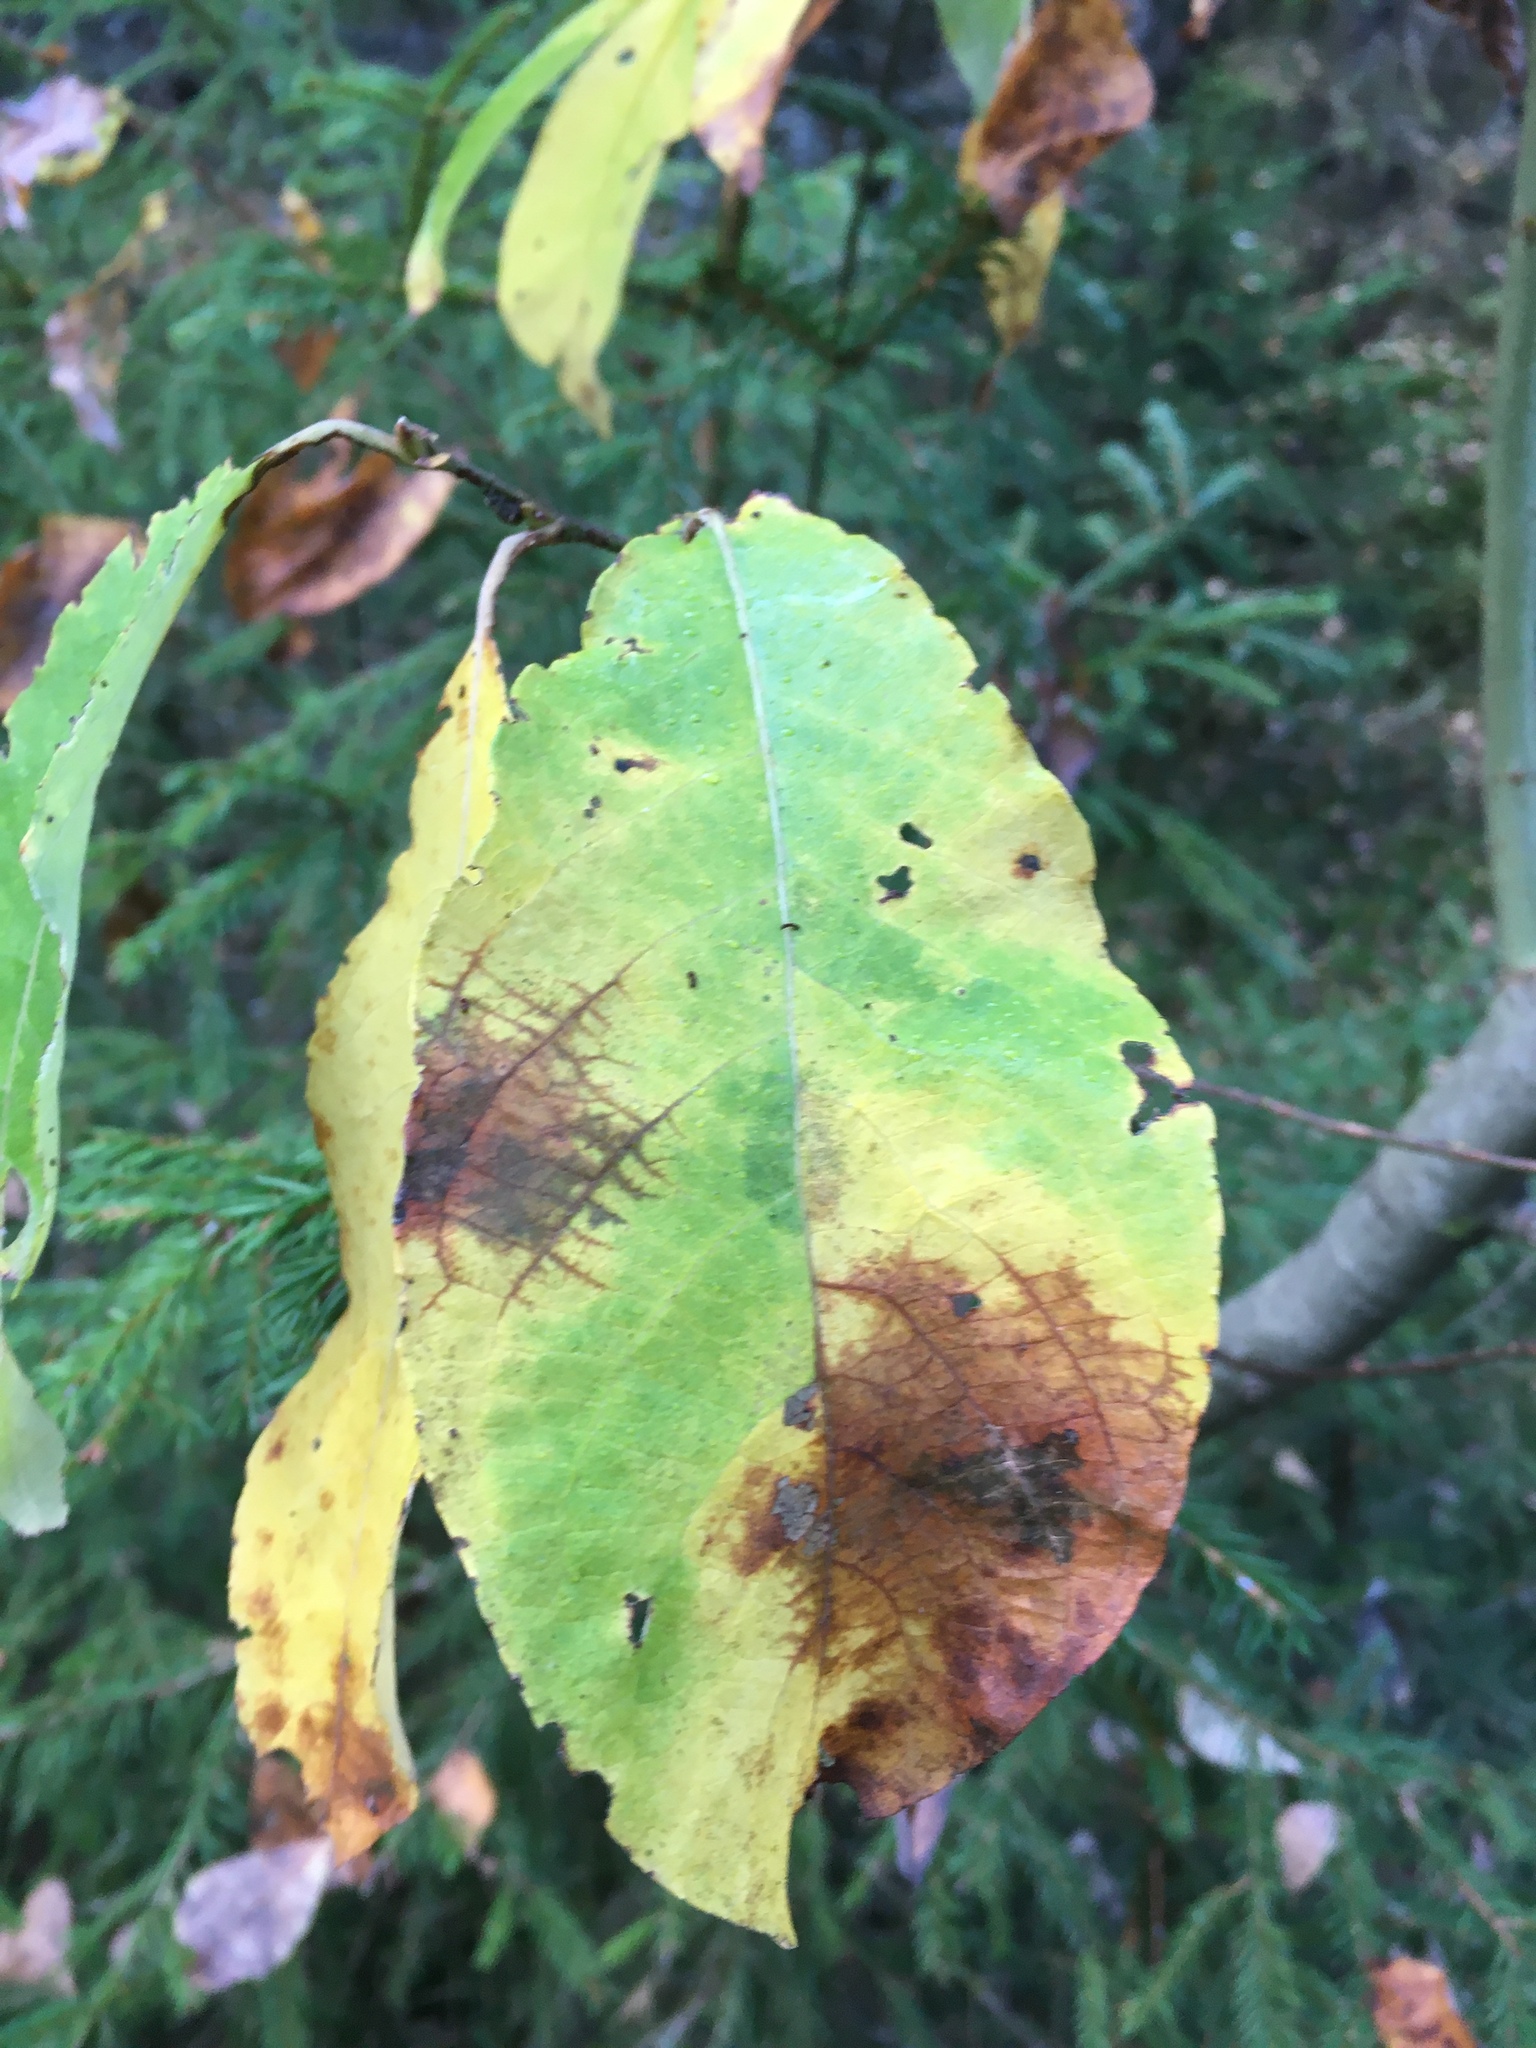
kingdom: Plantae
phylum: Tracheophyta
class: Magnoliopsida
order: Rosales
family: Rosaceae
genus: Prunus
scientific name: Prunus padus
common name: Bird cherry
